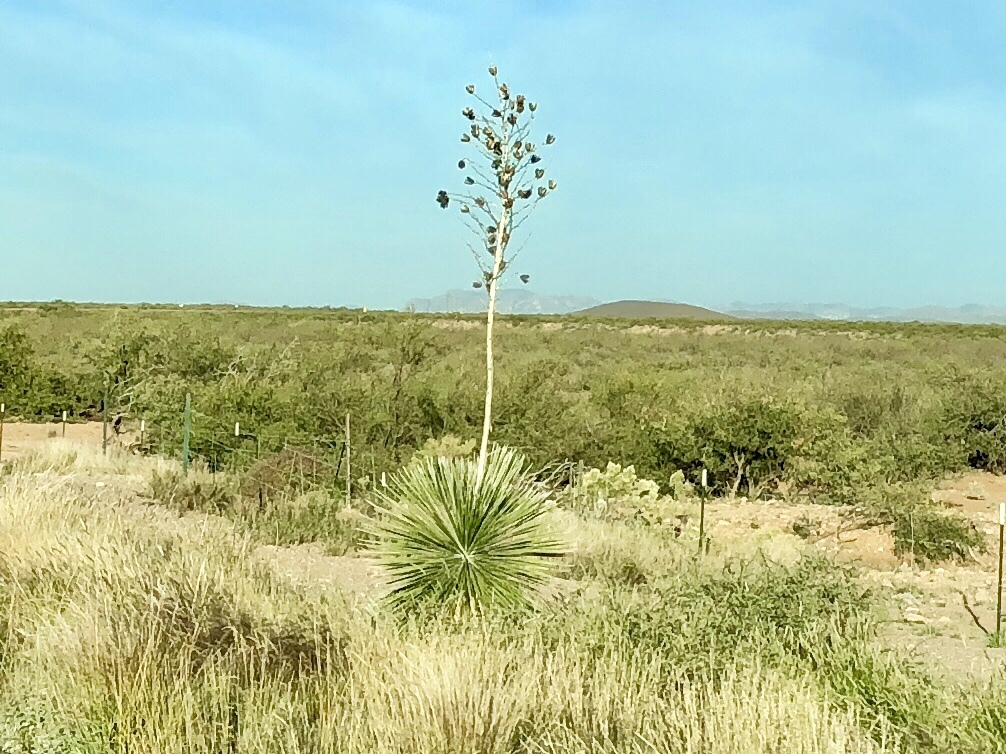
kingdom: Plantae
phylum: Tracheophyta
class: Liliopsida
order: Asparagales
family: Asparagaceae
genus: Yucca
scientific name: Yucca elata
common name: Palmella
